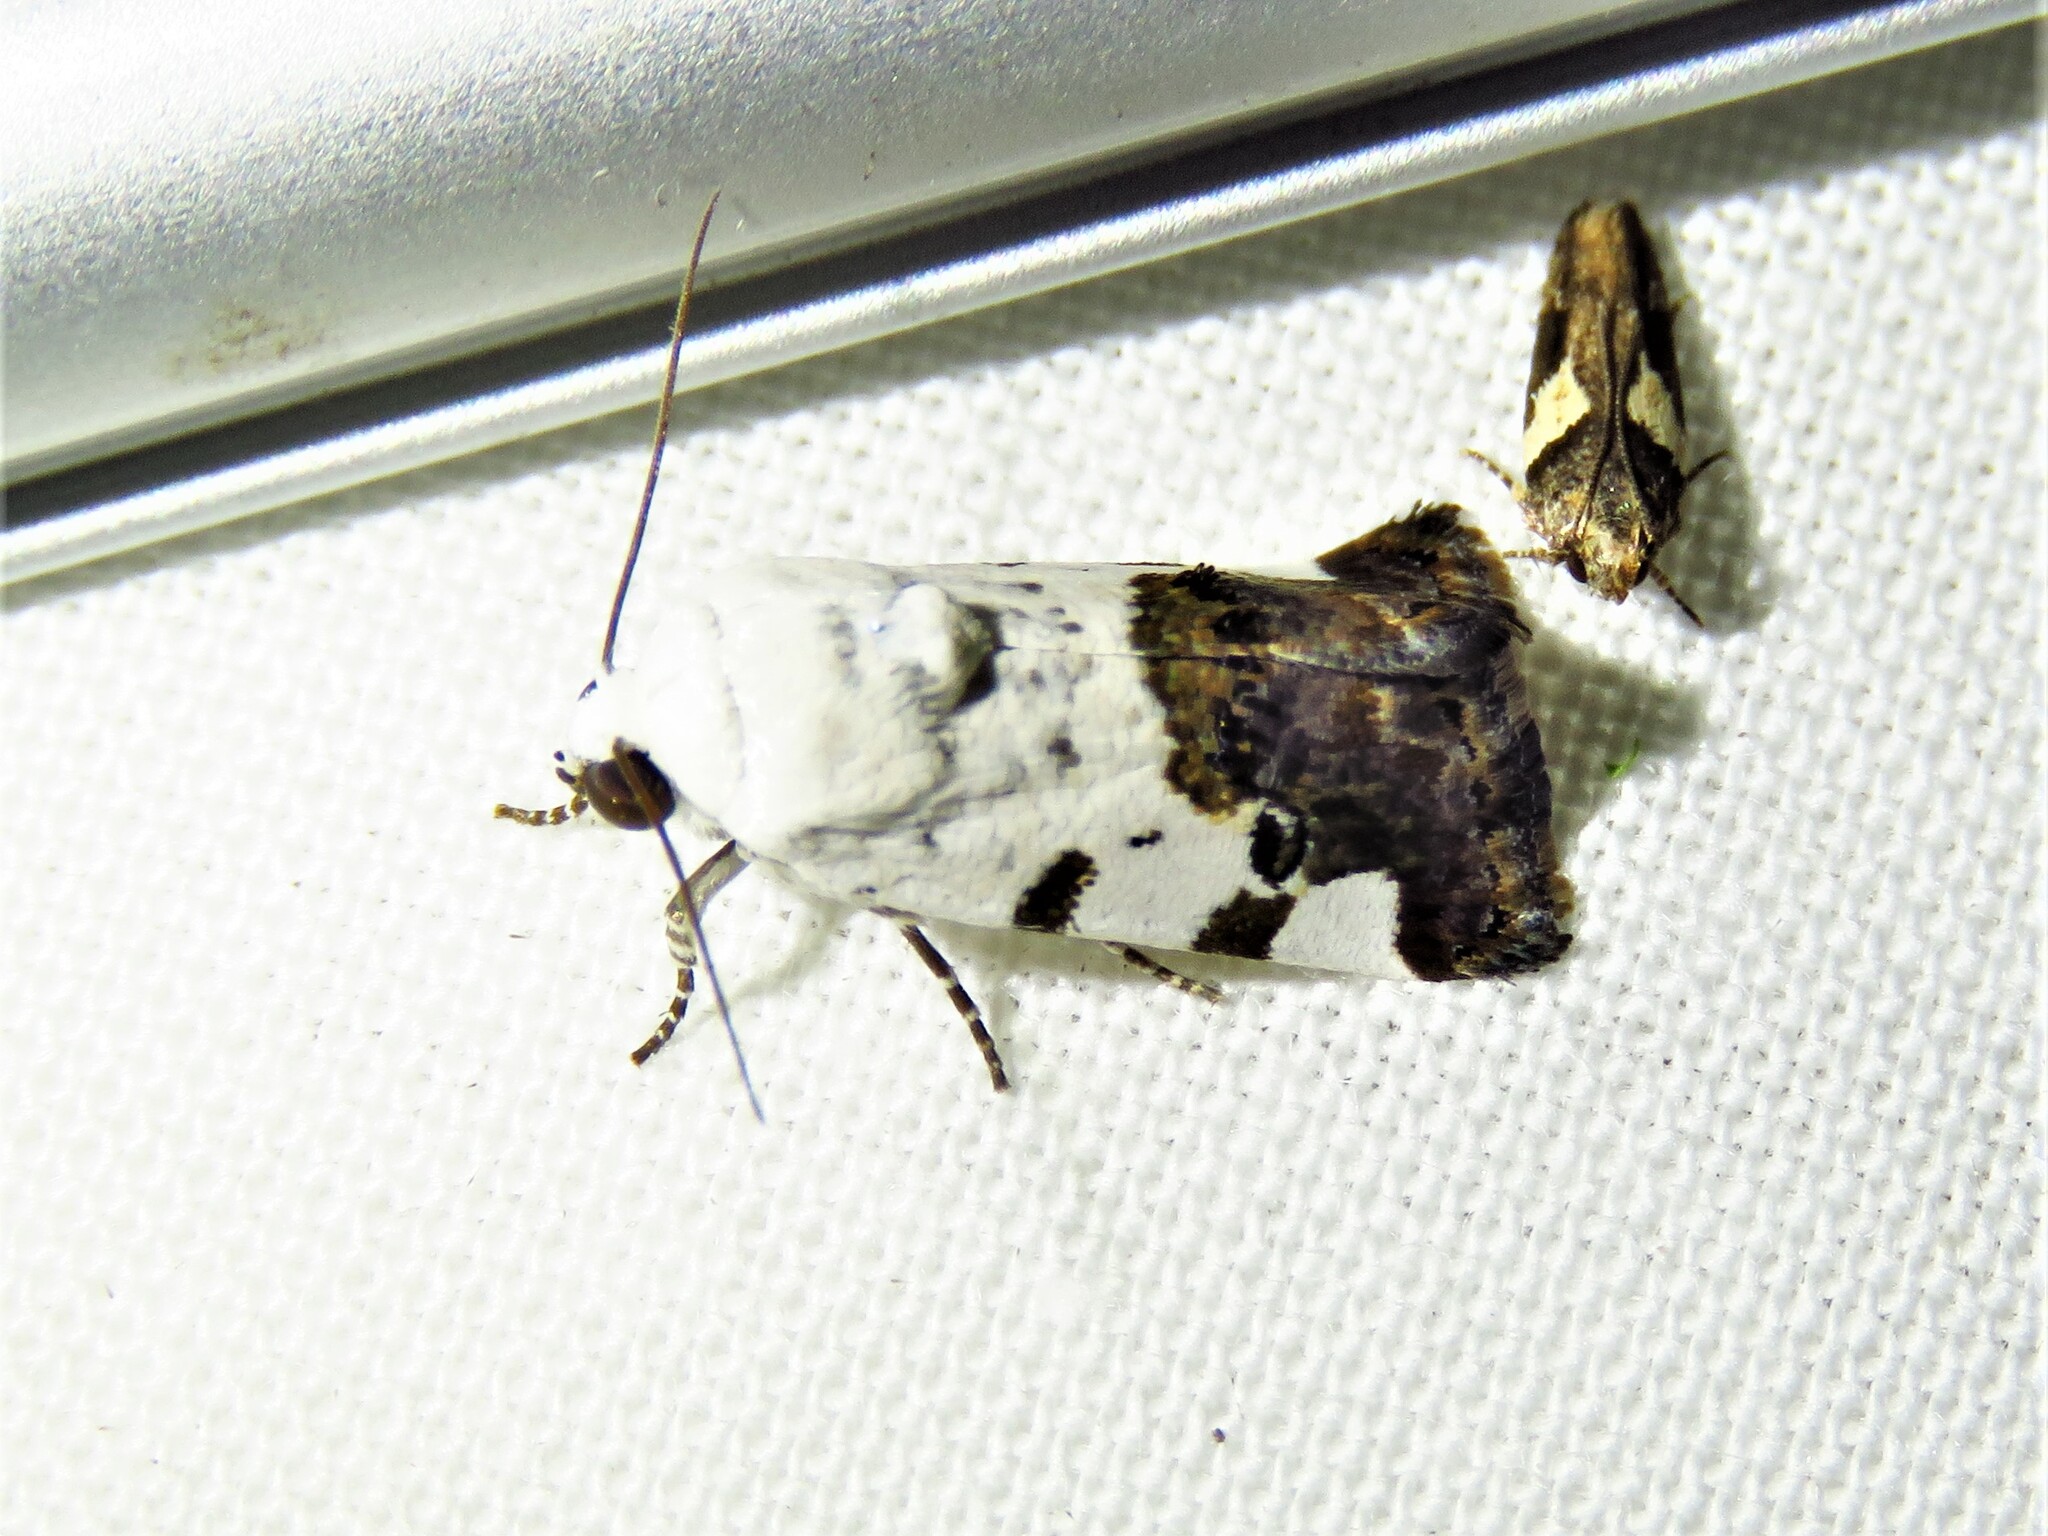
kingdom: Animalia
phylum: Arthropoda
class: Insecta
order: Lepidoptera
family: Noctuidae
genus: Acontia
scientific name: Acontia aprica
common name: Nun
